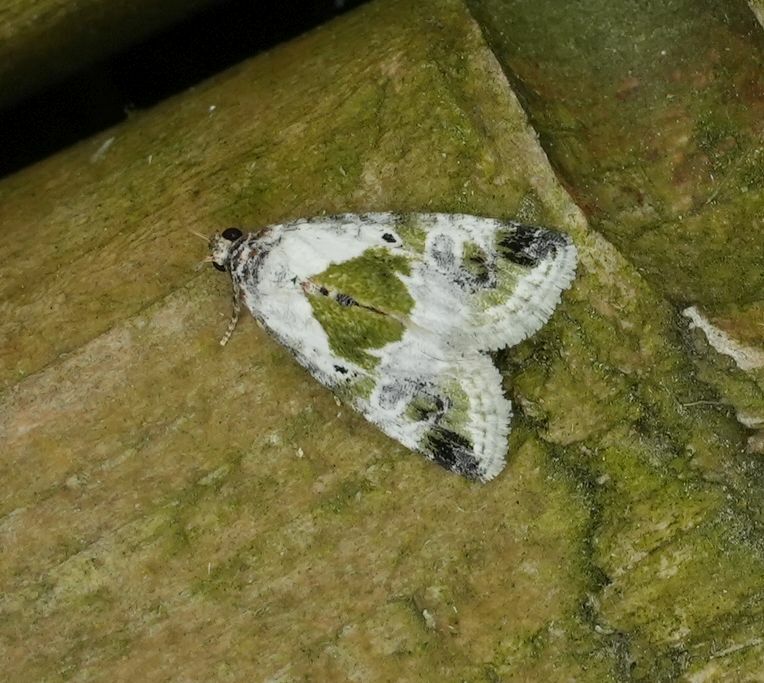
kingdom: Animalia
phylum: Arthropoda
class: Insecta
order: Lepidoptera
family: Noctuidae
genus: Maliattha
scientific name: Maliattha synochitis
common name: Black-dotted glyph
